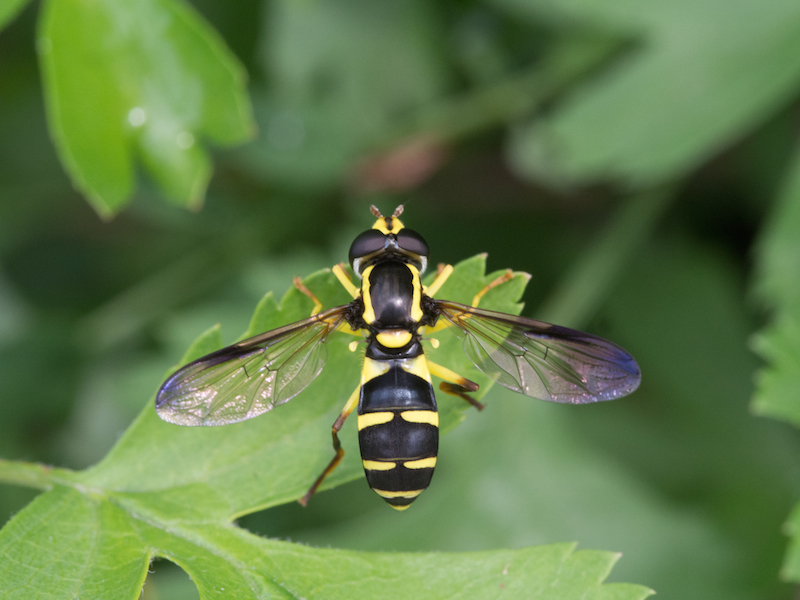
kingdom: Animalia
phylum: Arthropoda
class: Insecta
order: Diptera
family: Syrphidae
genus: Philhelius
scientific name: Philhelius dives
